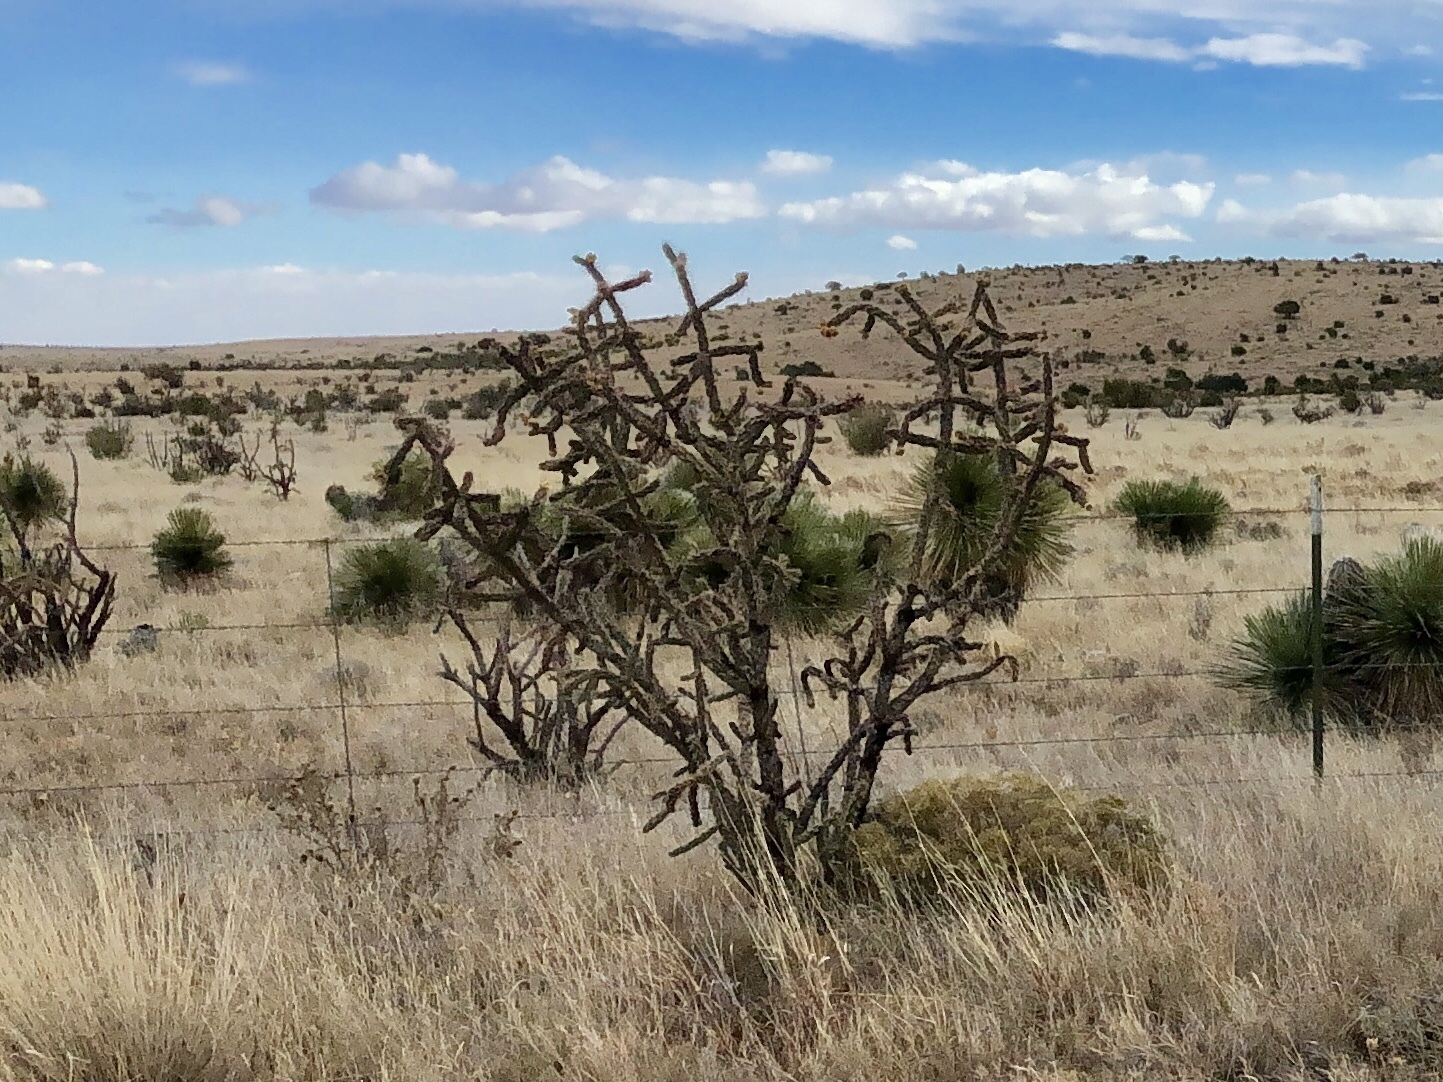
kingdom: Plantae
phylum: Tracheophyta
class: Magnoliopsida
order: Caryophyllales
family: Cactaceae
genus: Cylindropuntia
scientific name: Cylindropuntia imbricata
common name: Candelabrum cactus
